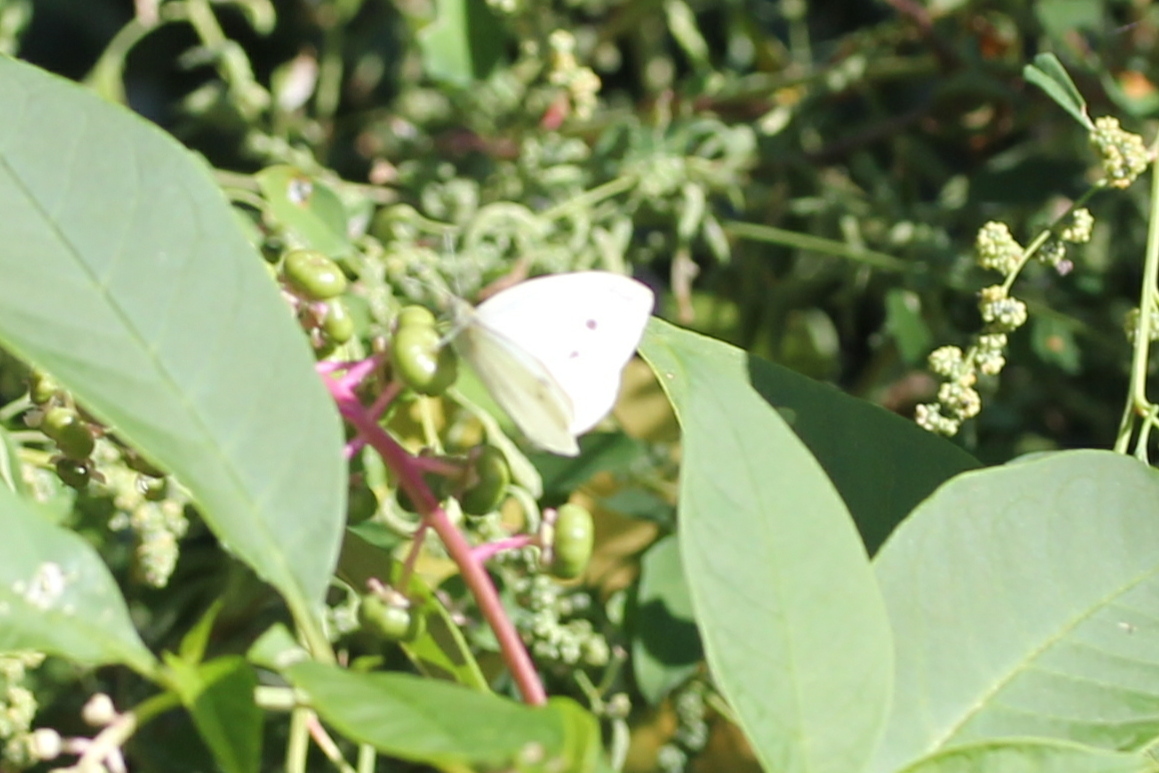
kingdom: Animalia
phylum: Arthropoda
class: Insecta
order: Lepidoptera
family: Pieridae
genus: Pieris
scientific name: Pieris rapae
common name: Small white
